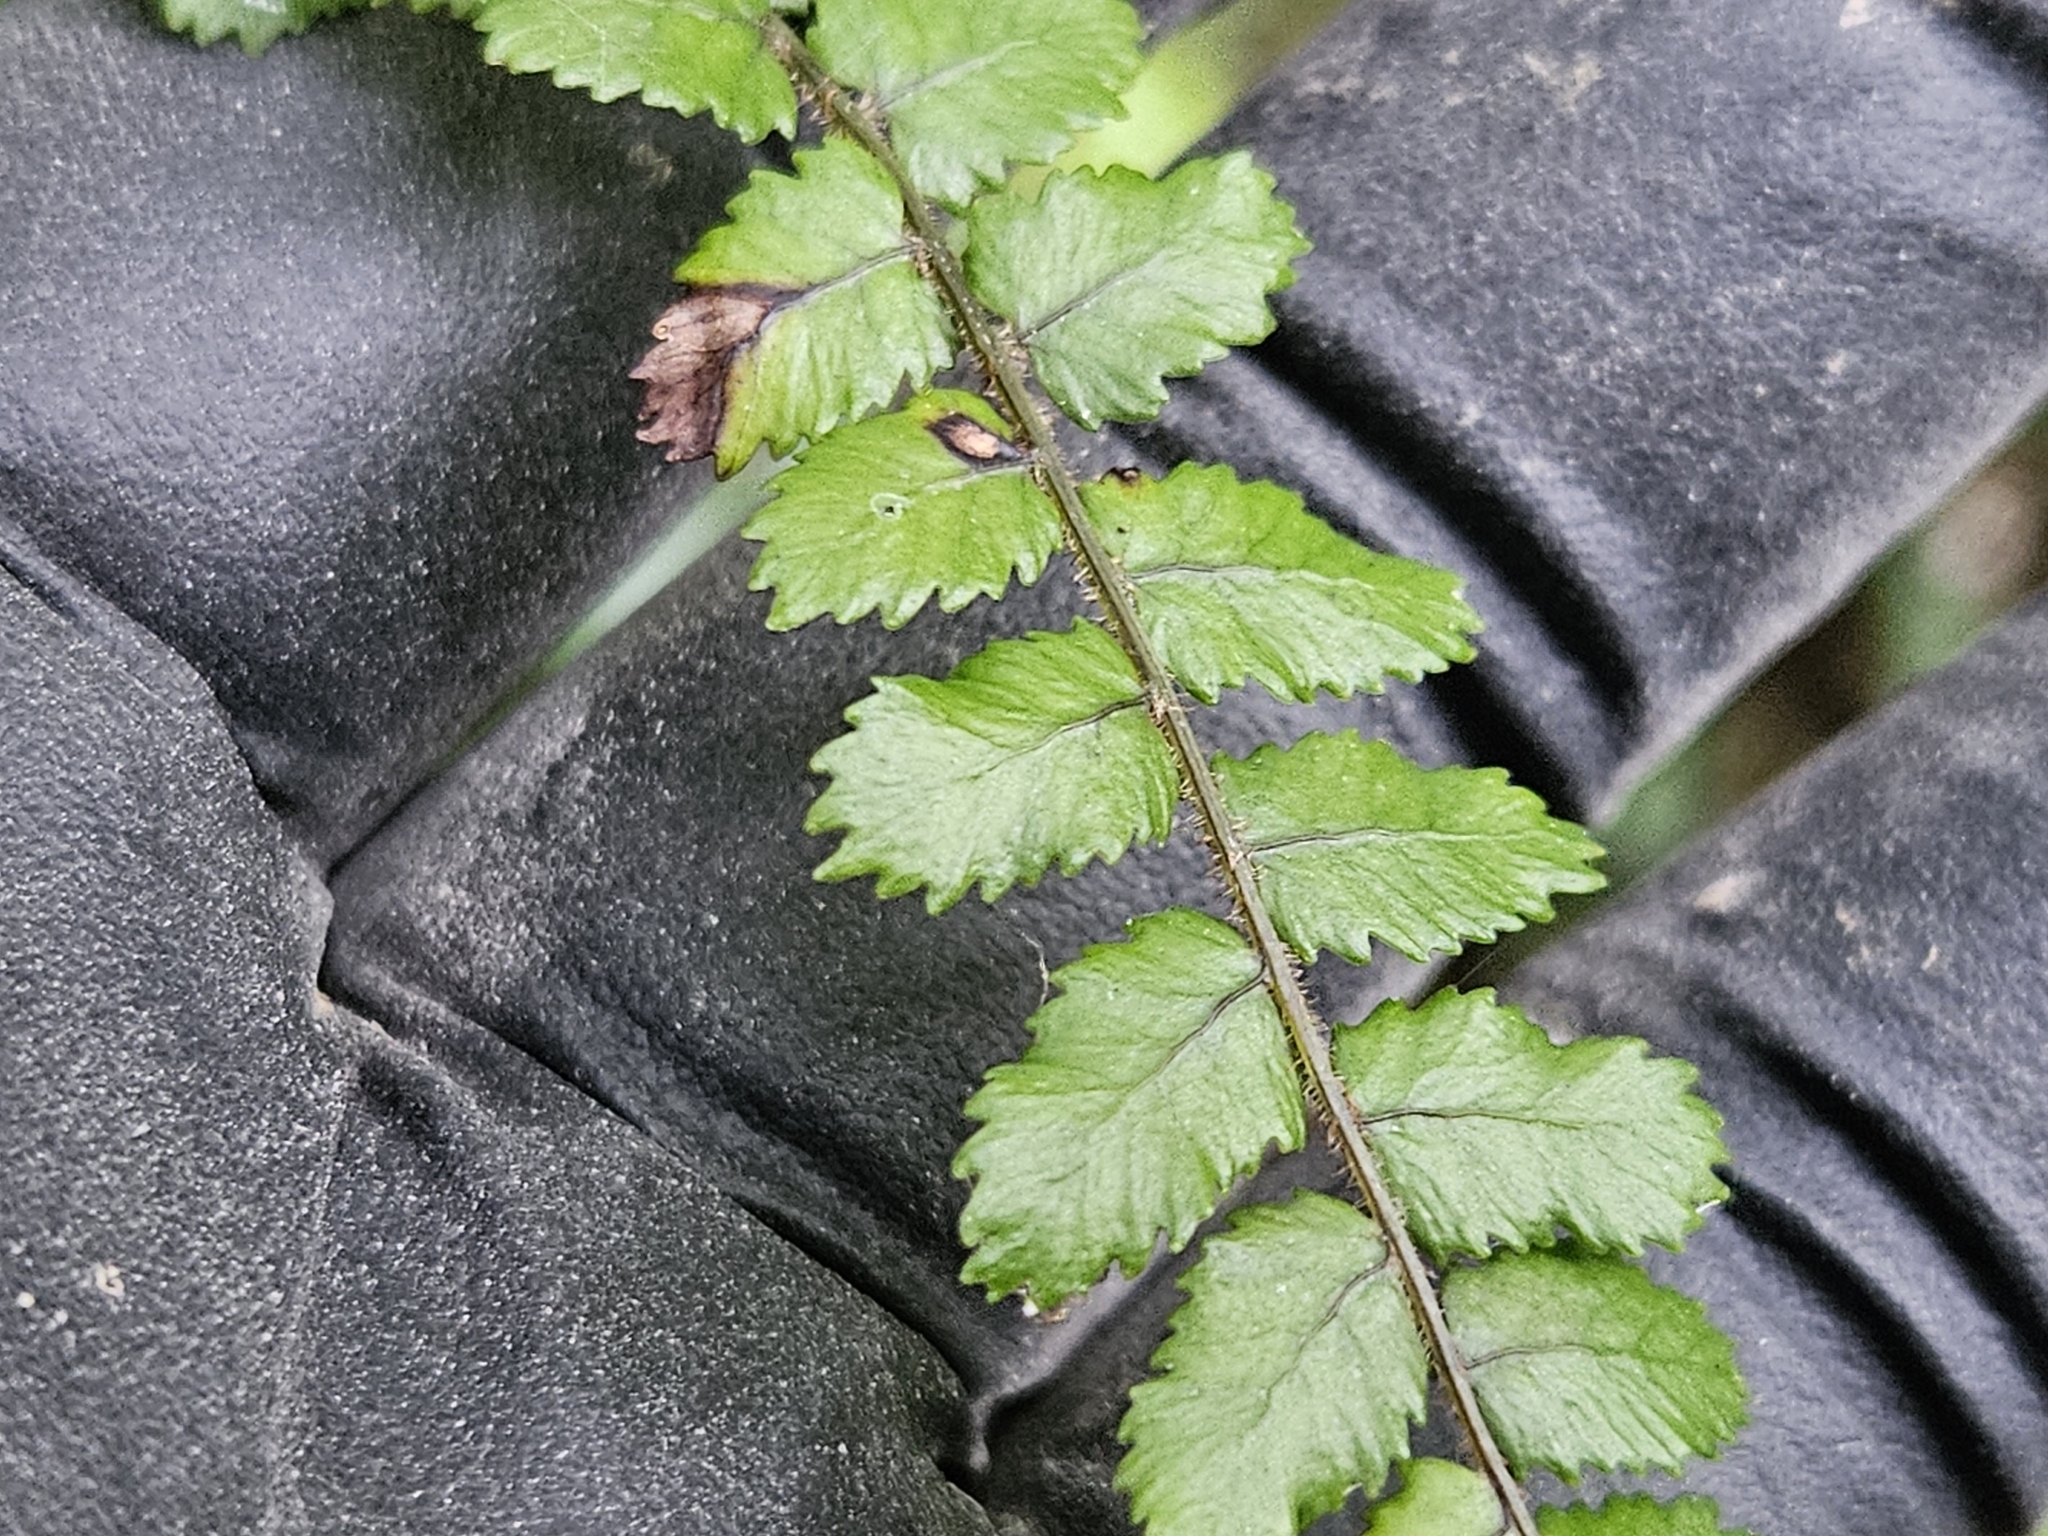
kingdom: Plantae
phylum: Tracheophyta
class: Polypodiopsida
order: Polypodiales
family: Blechnaceae
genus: Icarus
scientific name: Icarus filiformis
